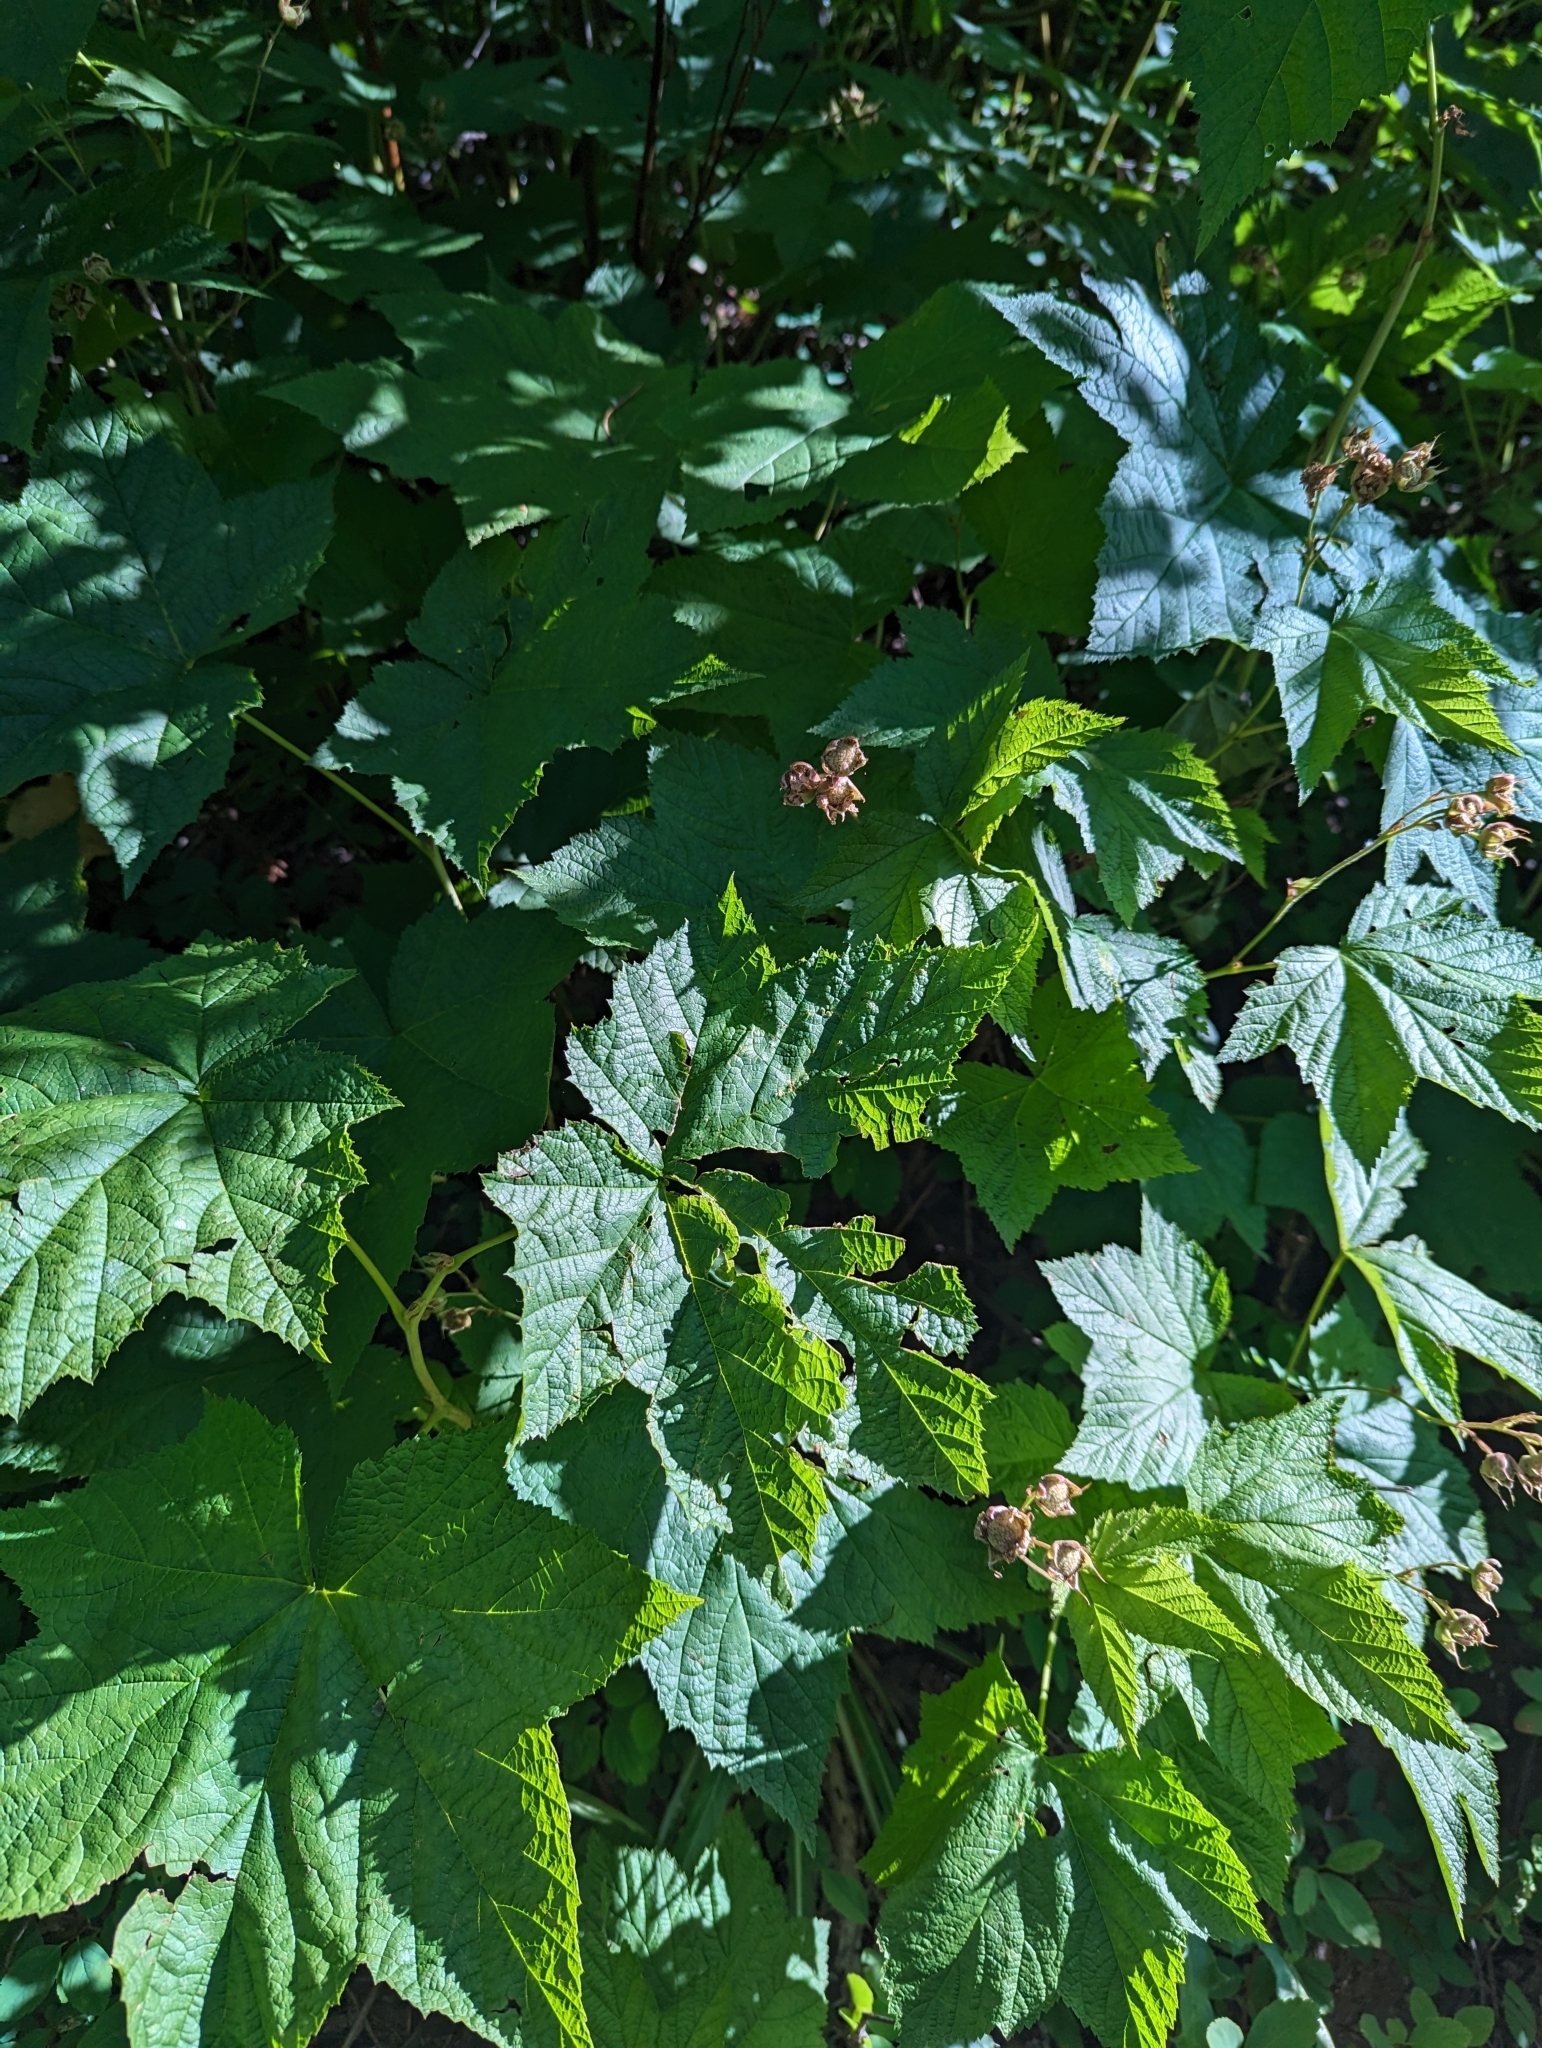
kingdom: Plantae
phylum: Tracheophyta
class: Magnoliopsida
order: Rosales
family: Rosaceae
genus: Rubus
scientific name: Rubus parviflorus
